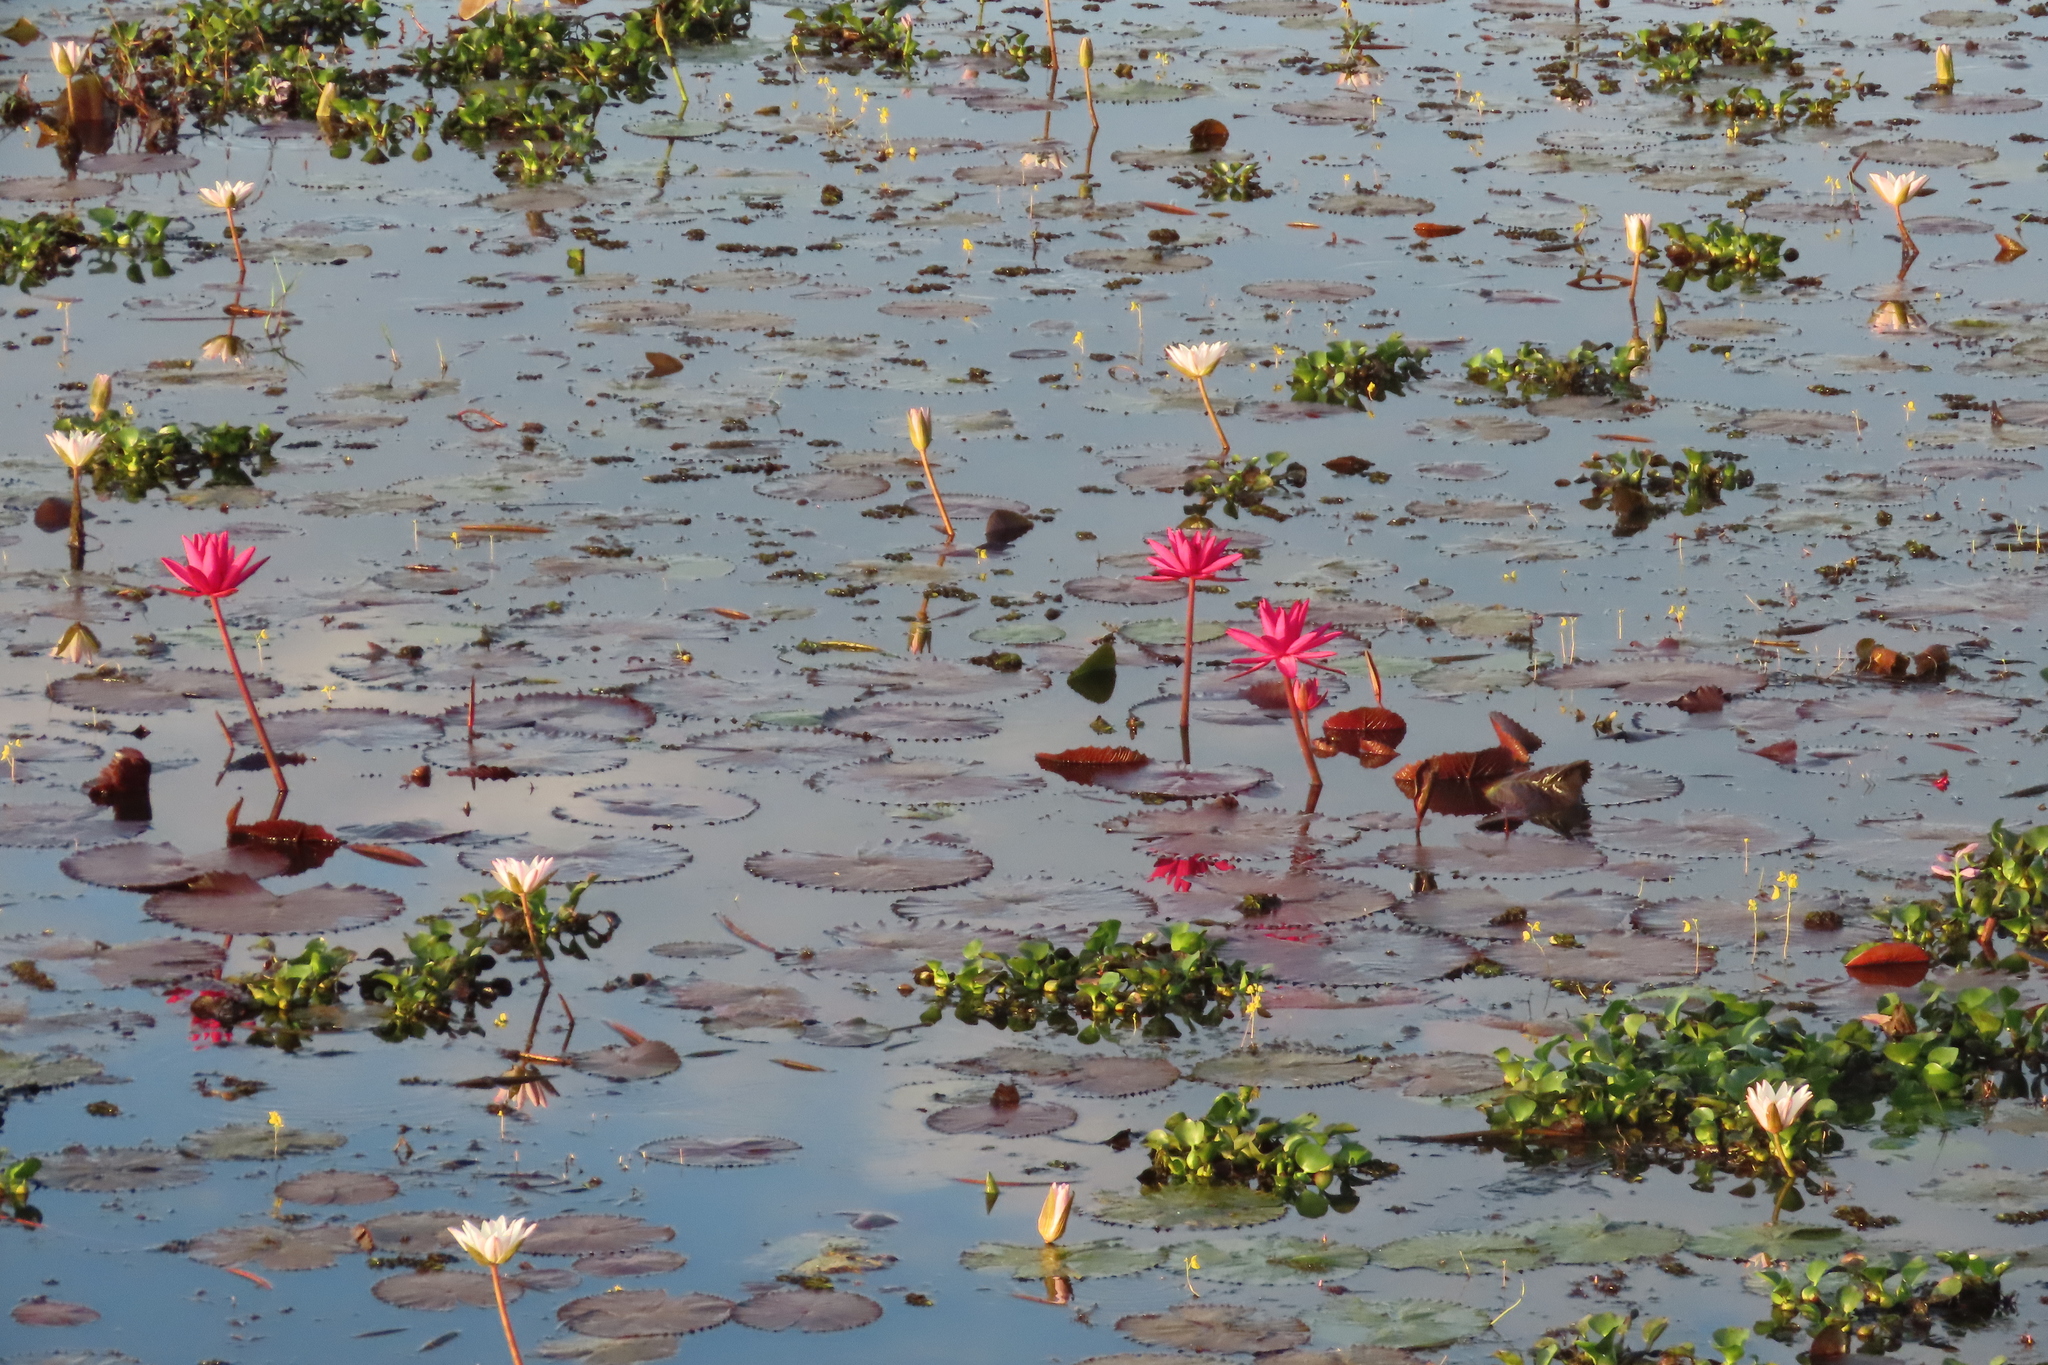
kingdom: Plantae
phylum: Tracheophyta
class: Liliopsida
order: Commelinales
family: Pontederiaceae
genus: Pontederia
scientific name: Pontederia crassipes
